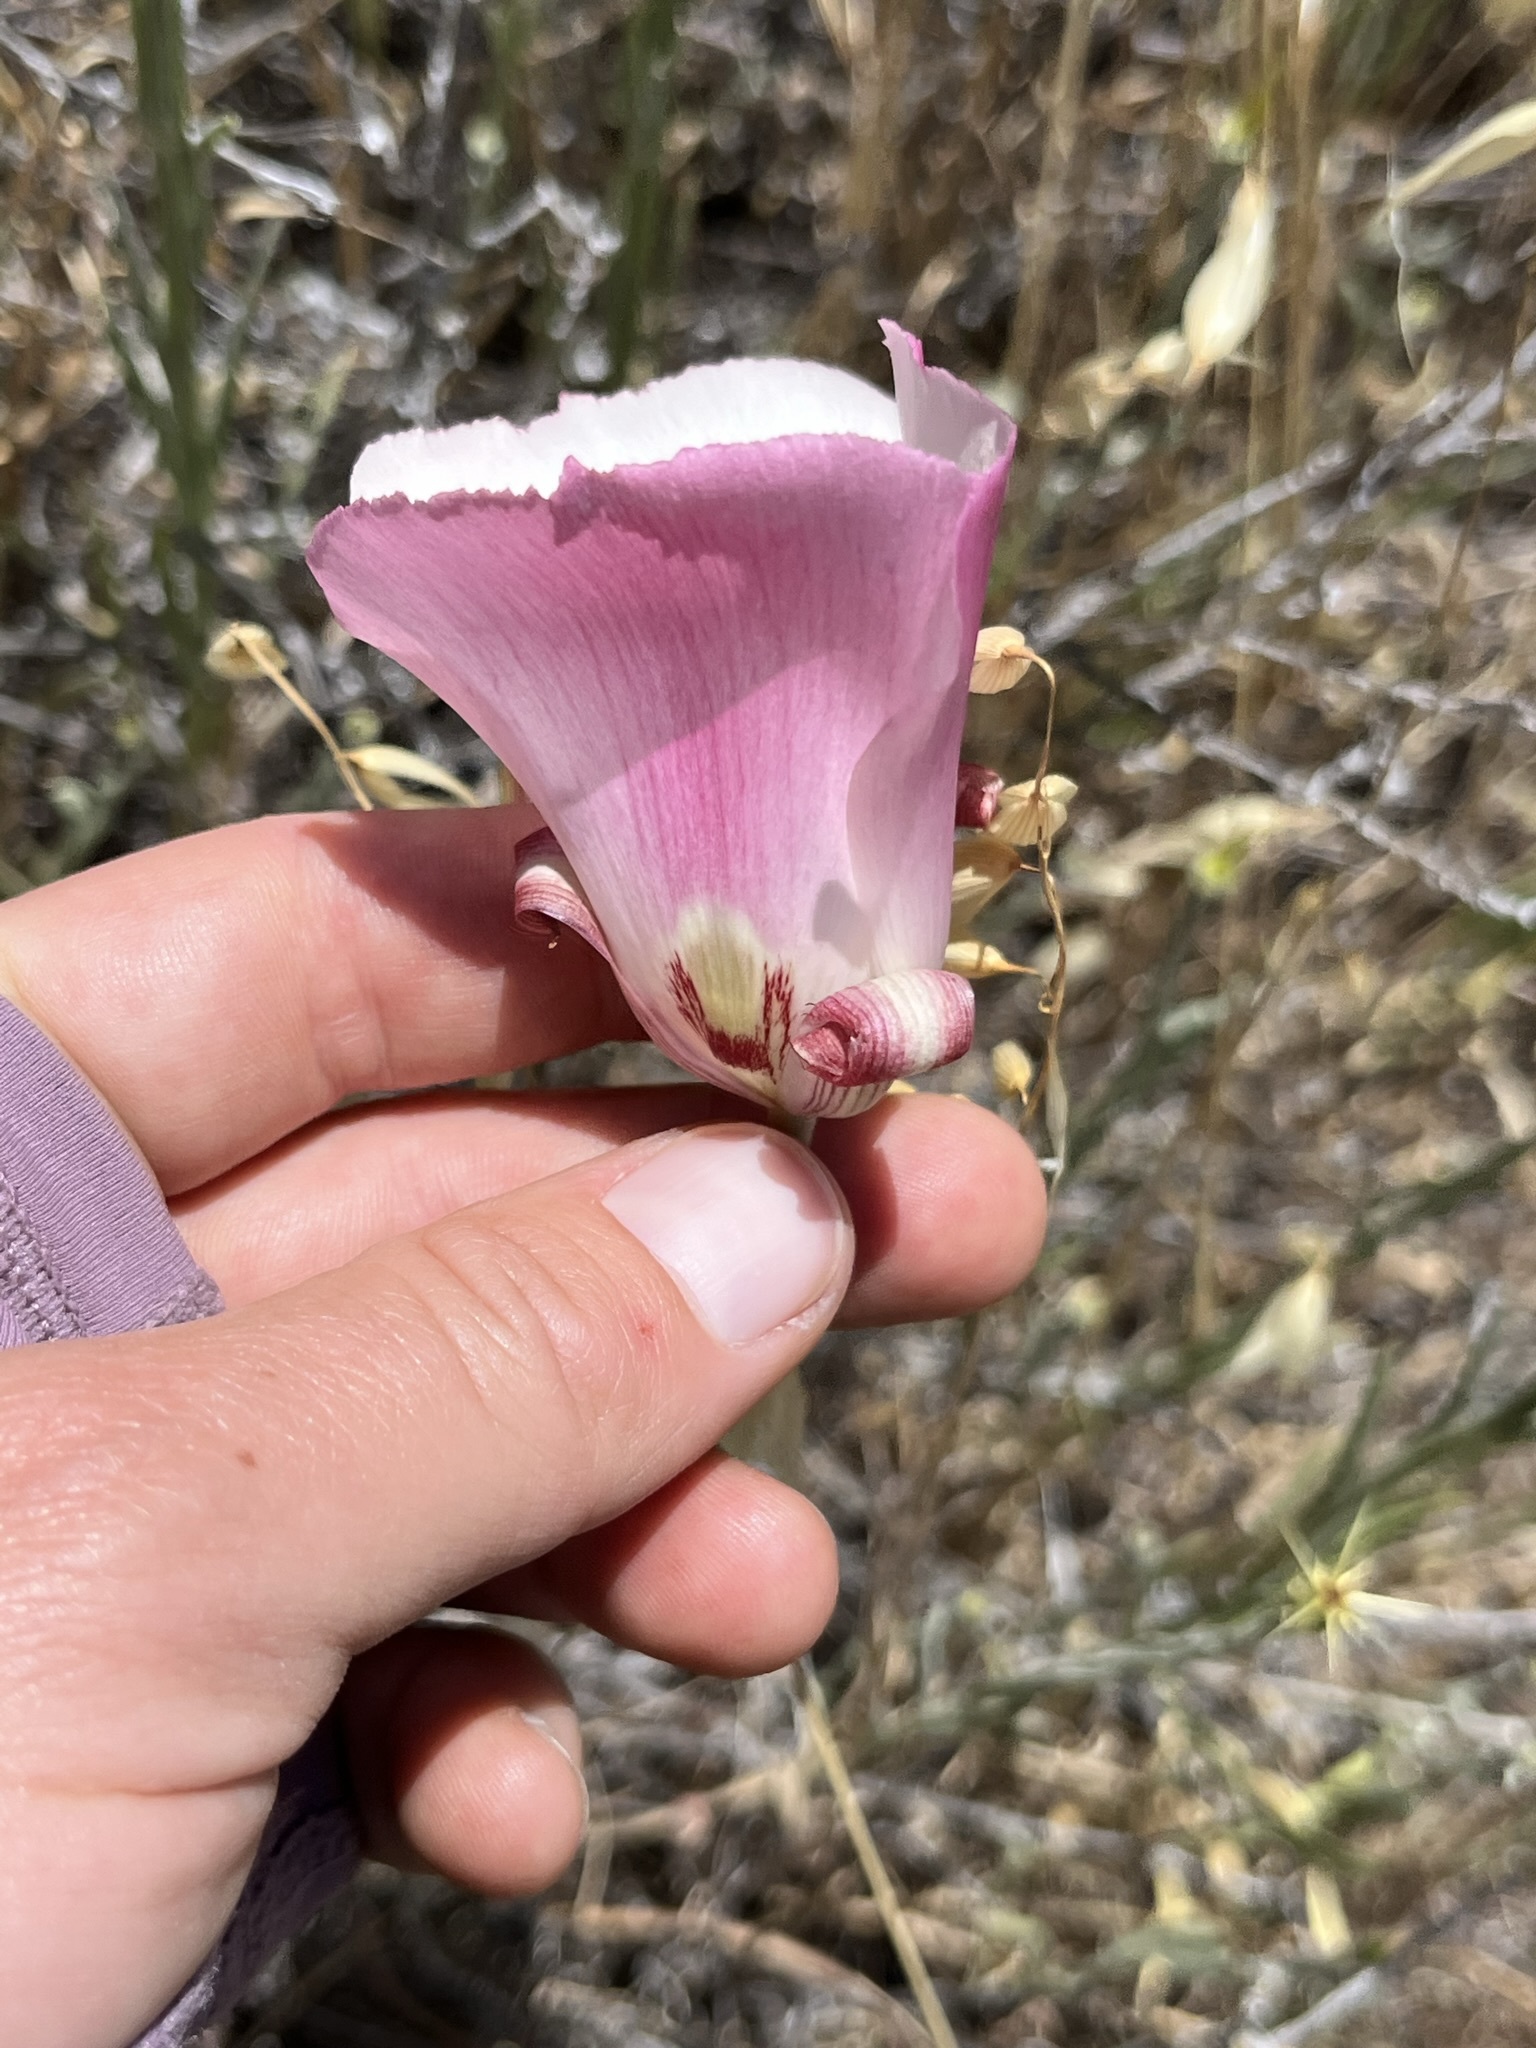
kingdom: Plantae
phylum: Tracheophyta
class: Liliopsida
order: Liliales
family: Liliaceae
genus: Calochortus
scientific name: Calochortus simulans
